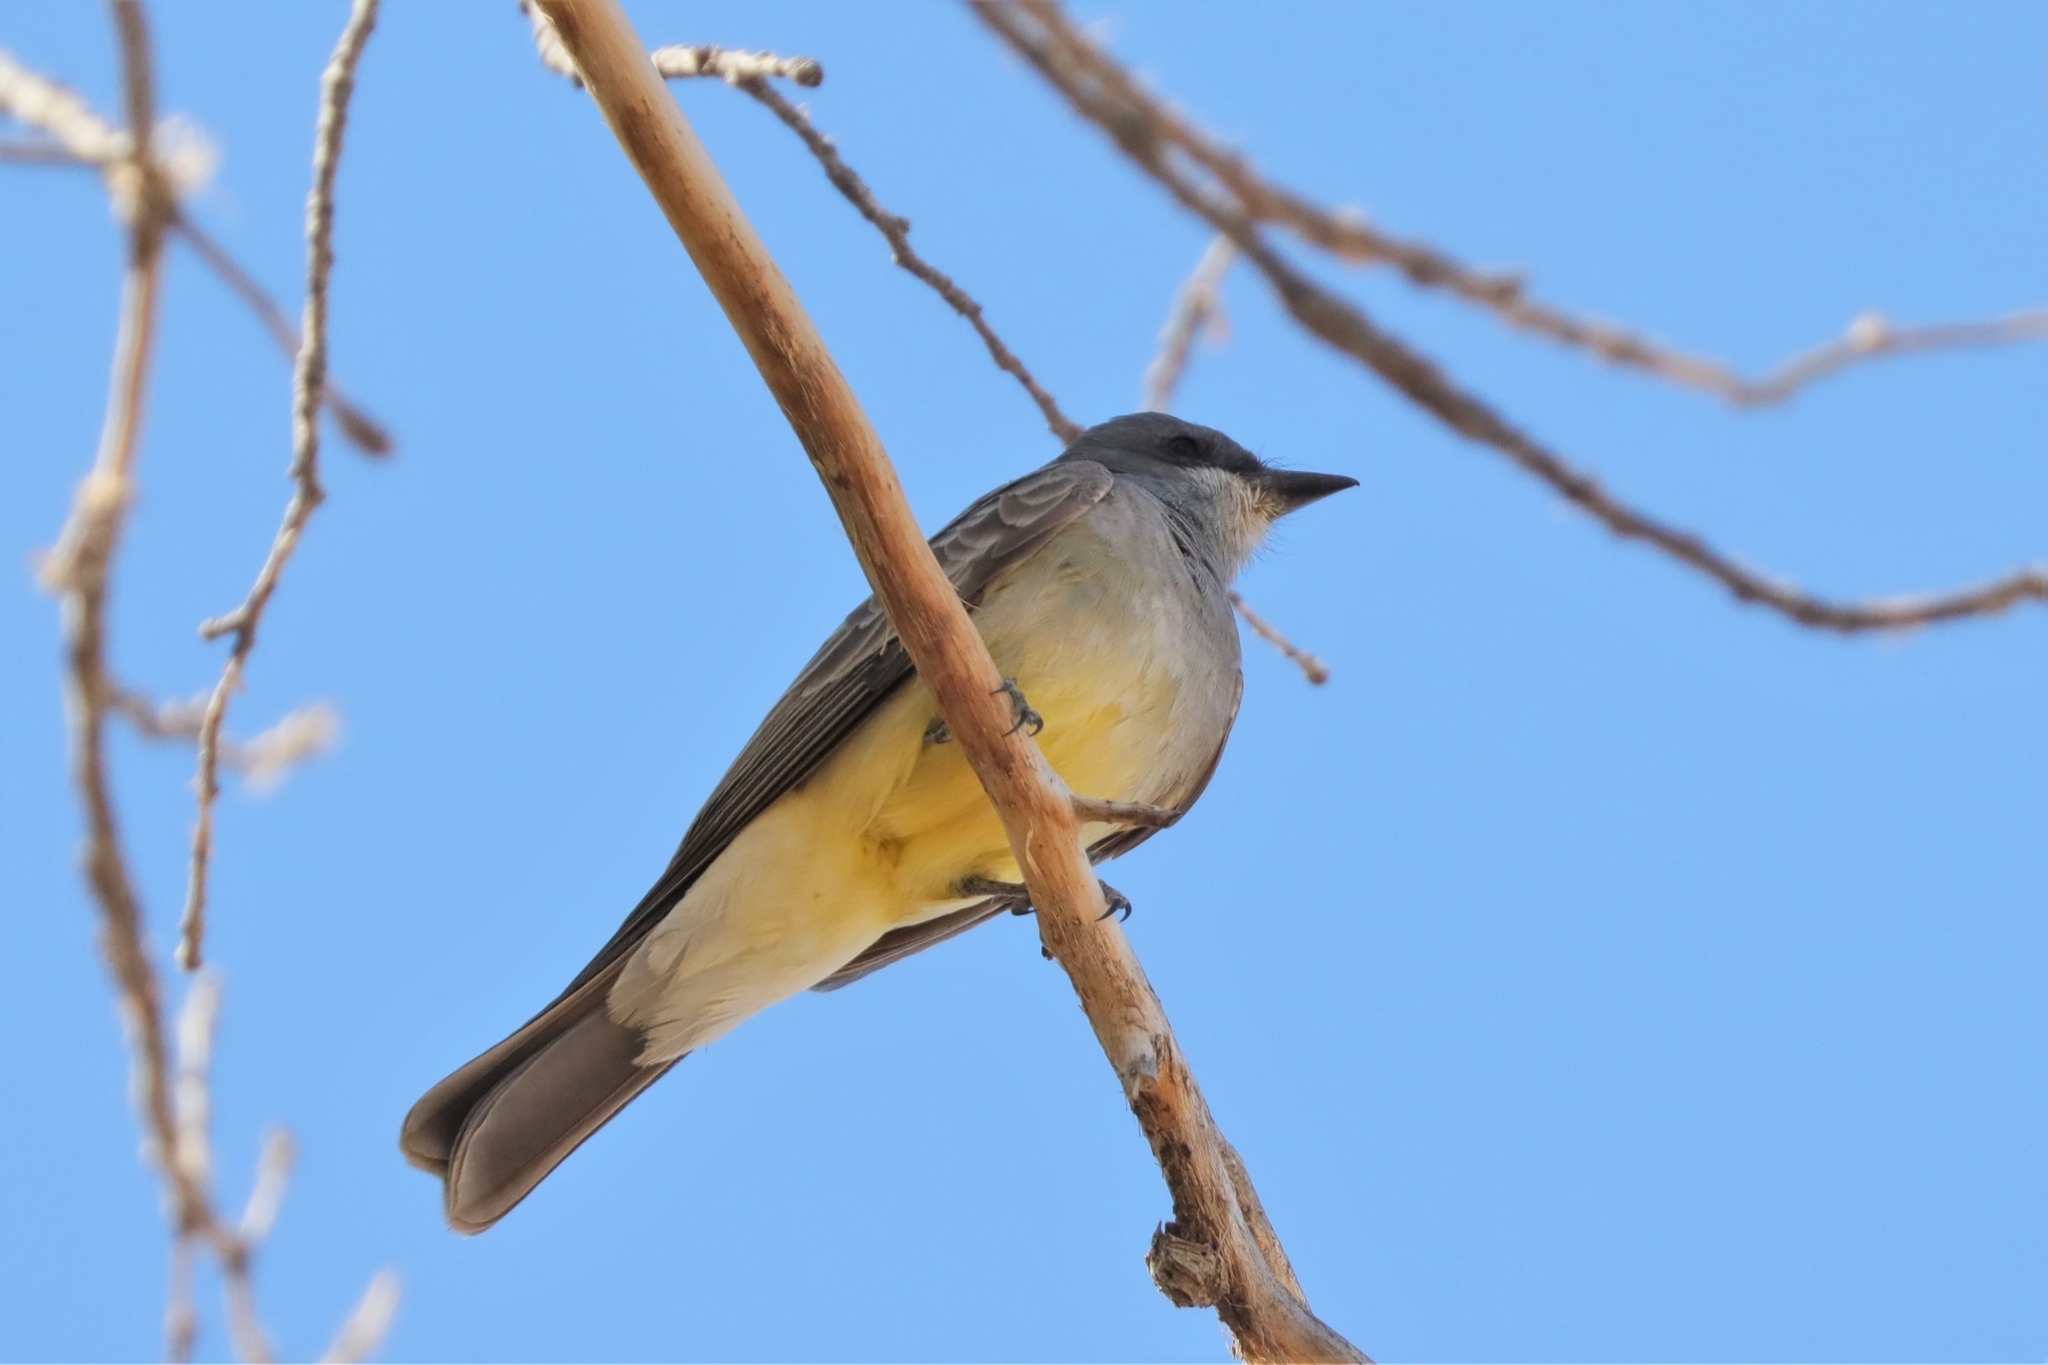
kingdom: Animalia
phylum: Chordata
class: Aves
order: Passeriformes
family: Tyrannidae
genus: Tyrannus
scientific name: Tyrannus vociferans
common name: Cassin's kingbird
